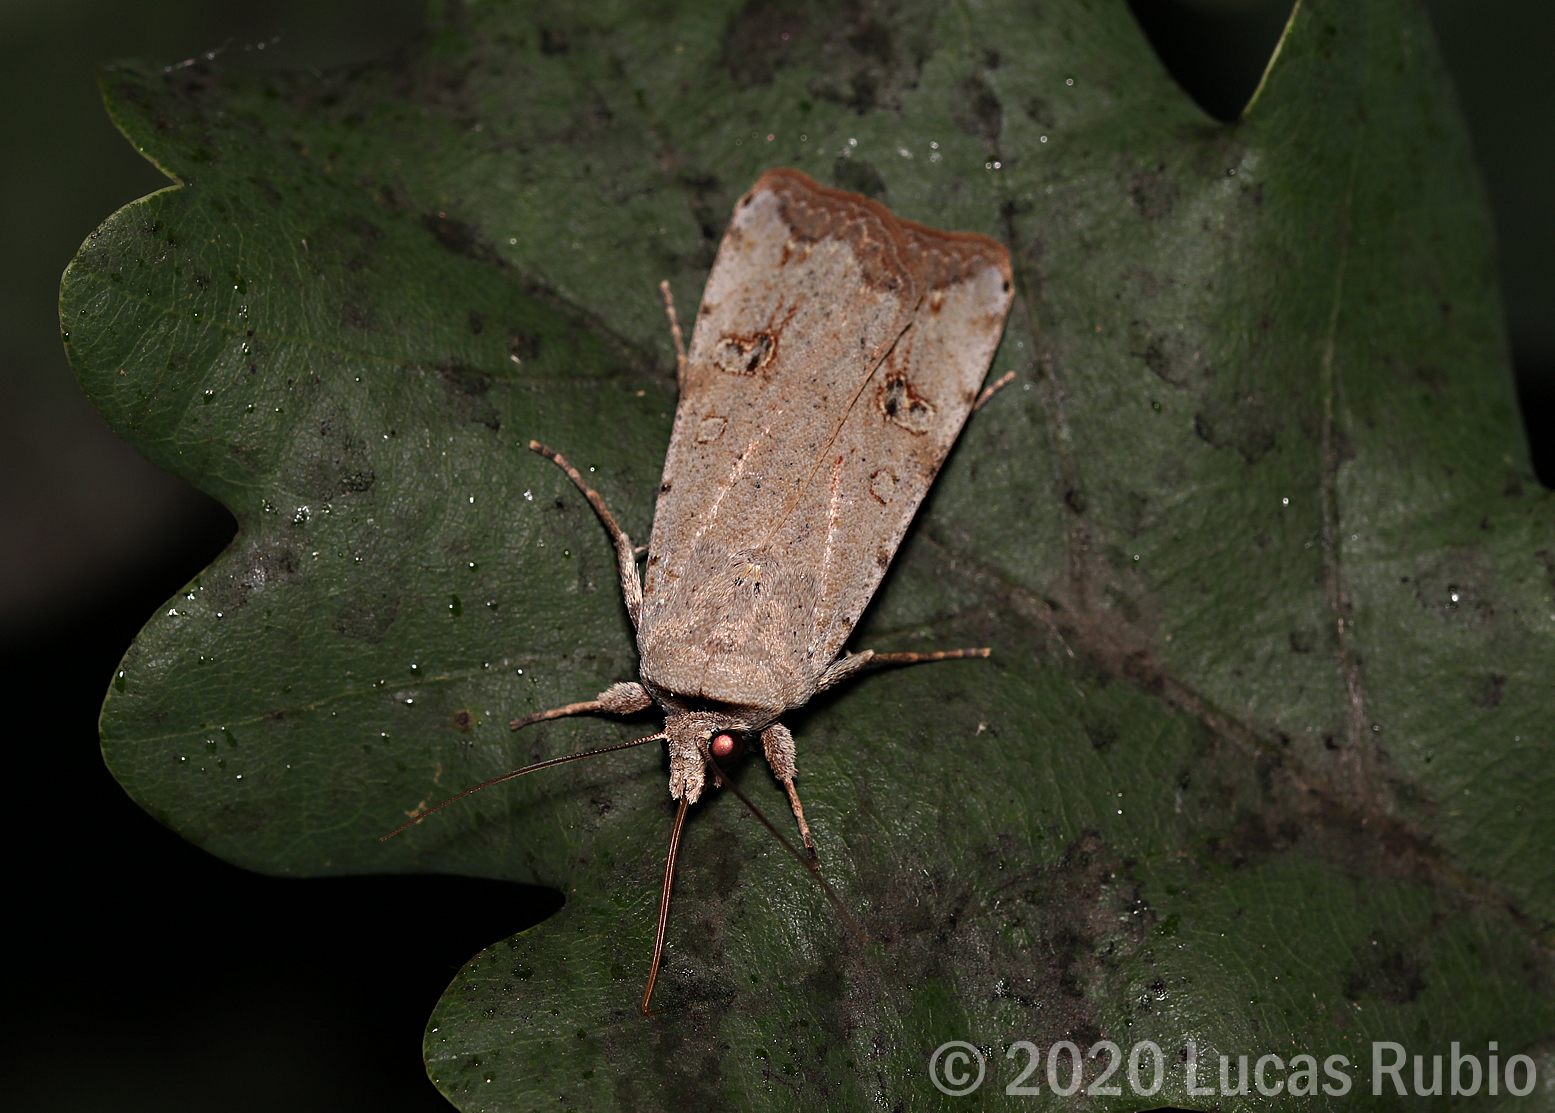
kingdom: Animalia
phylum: Arthropoda
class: Insecta
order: Lepidoptera
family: Noctuidae
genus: Anicla
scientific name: Anicla infecta
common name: Green cutworm
